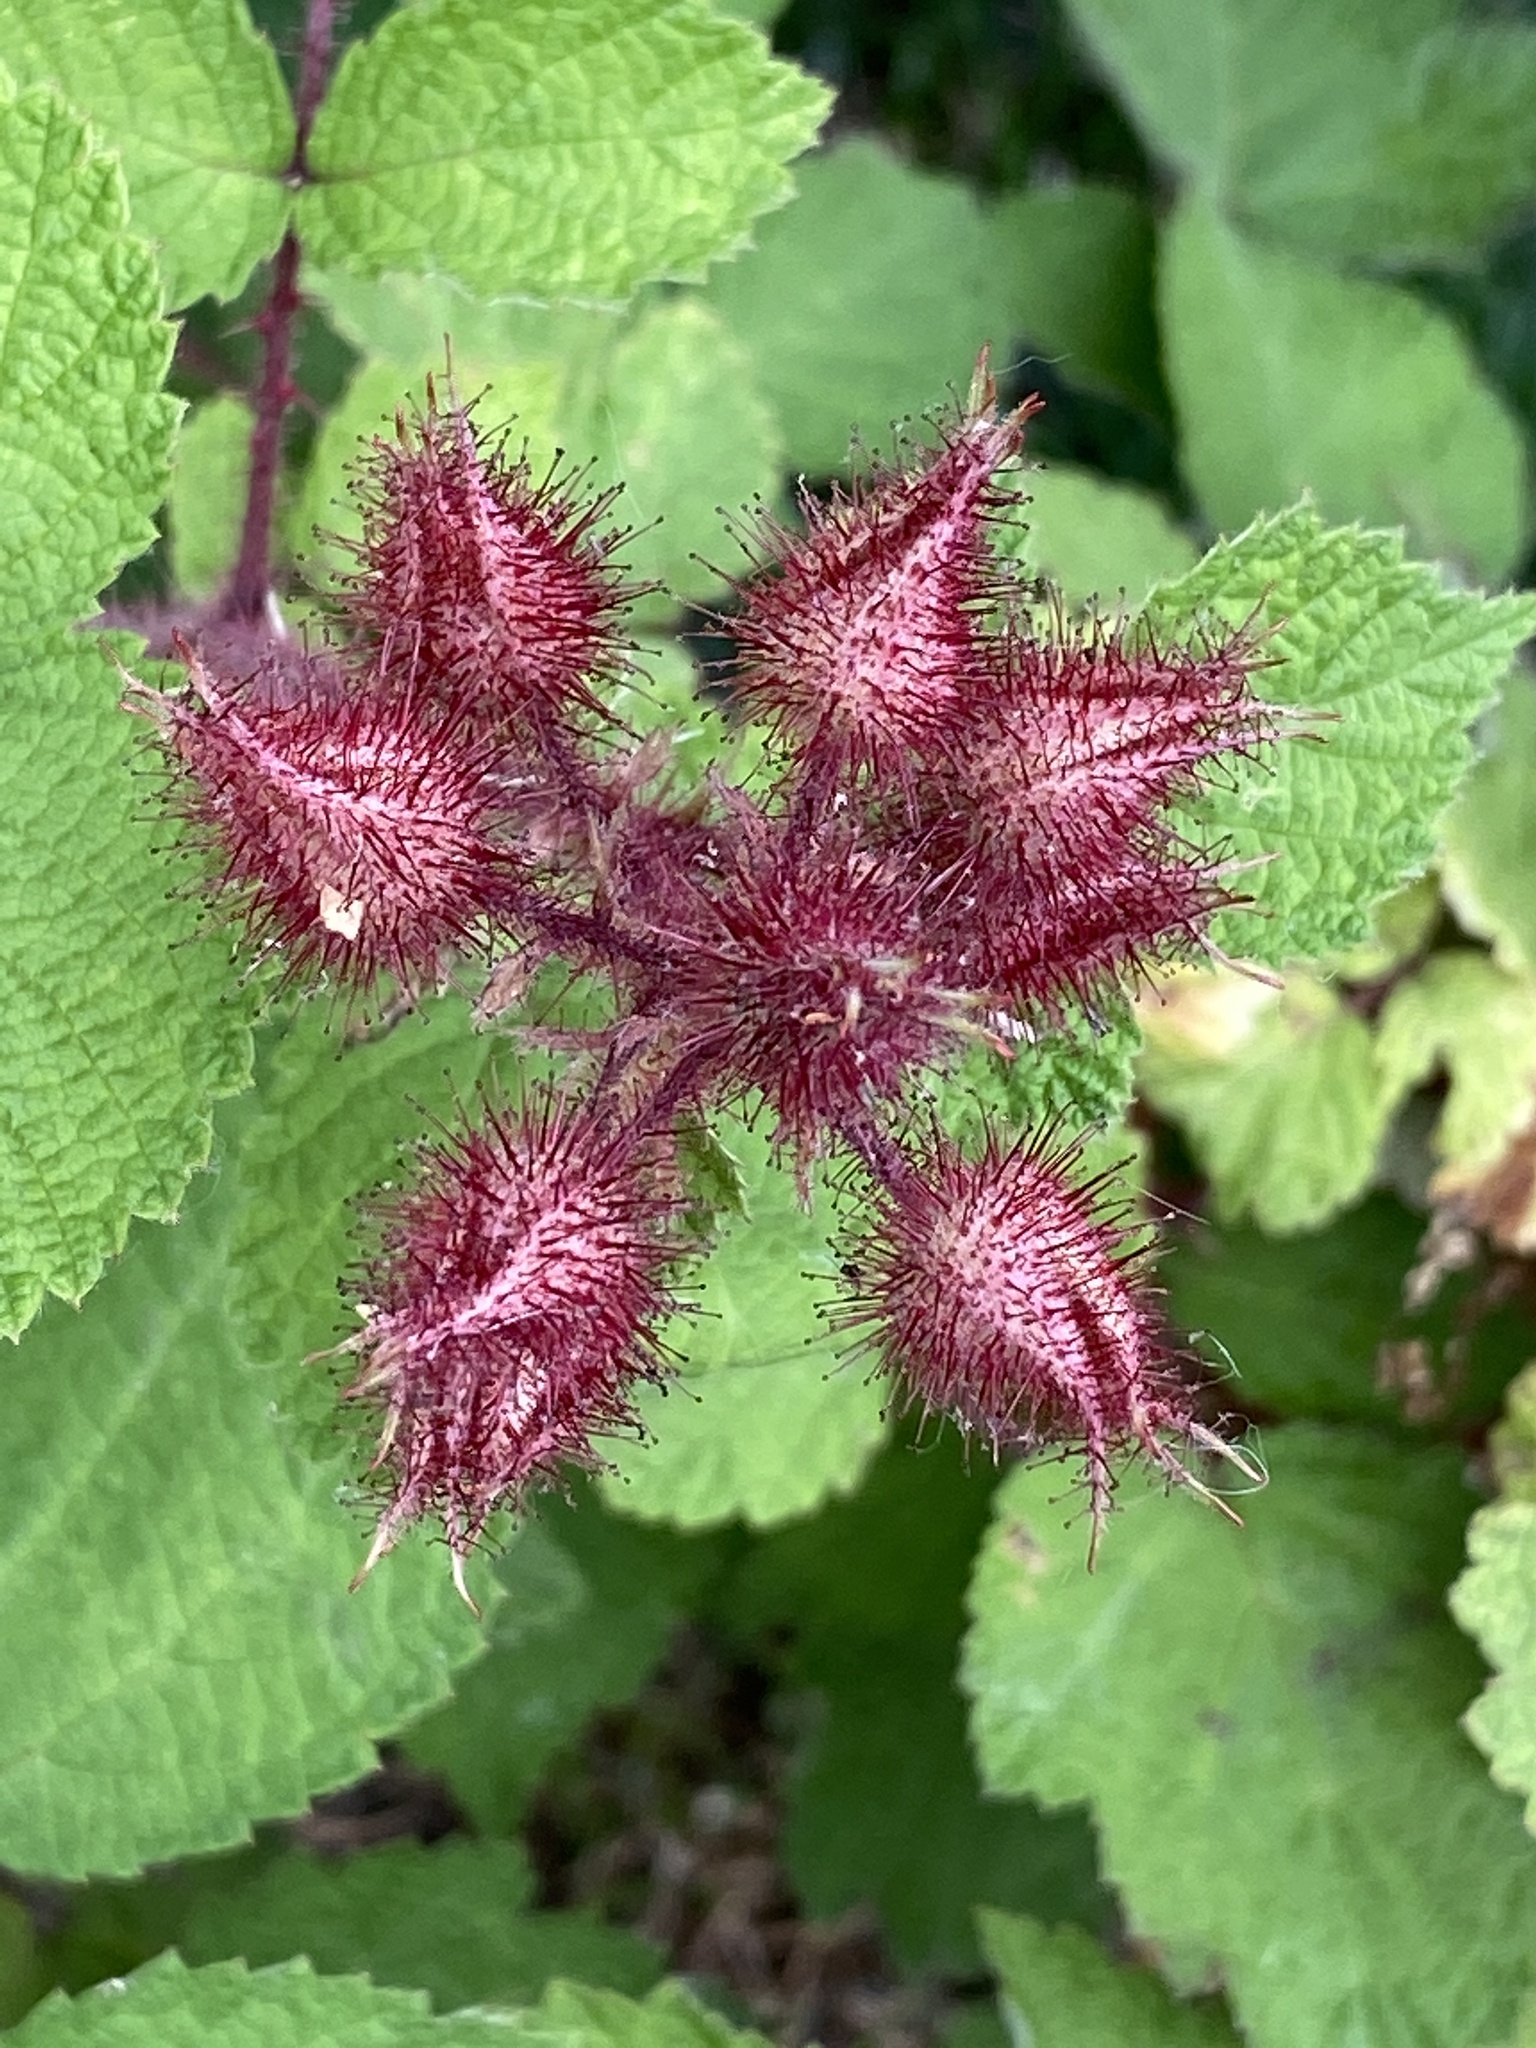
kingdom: Plantae
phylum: Tracheophyta
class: Magnoliopsida
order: Rosales
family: Rosaceae
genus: Rubus
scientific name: Rubus phoenicolasius
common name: Japanese wineberry
